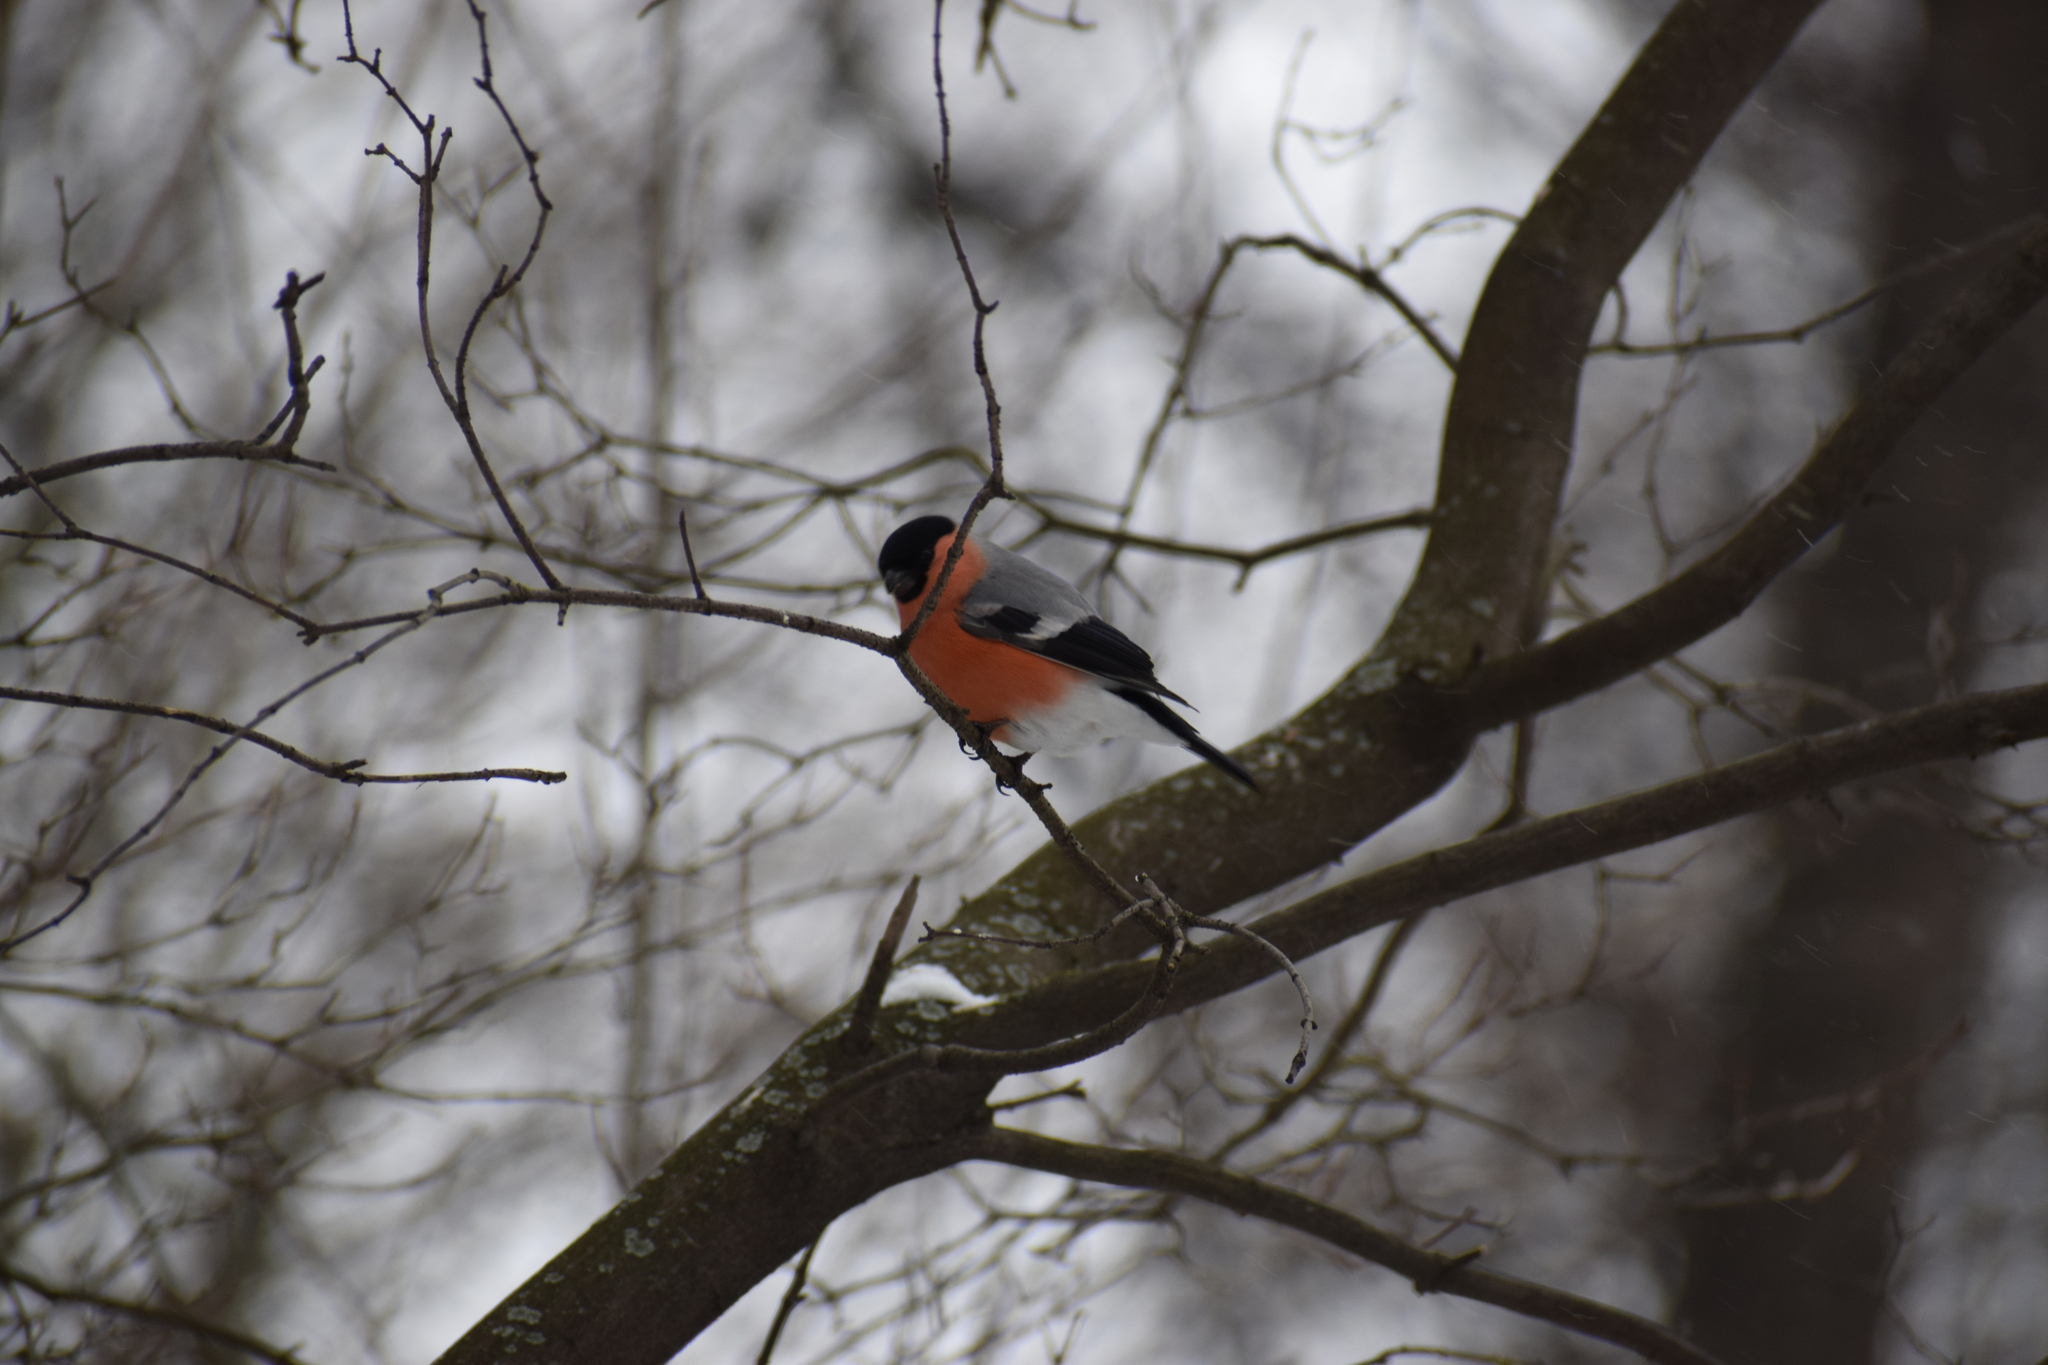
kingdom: Animalia
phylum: Chordata
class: Aves
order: Passeriformes
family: Fringillidae
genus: Pyrrhula
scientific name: Pyrrhula pyrrhula
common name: Eurasian bullfinch
